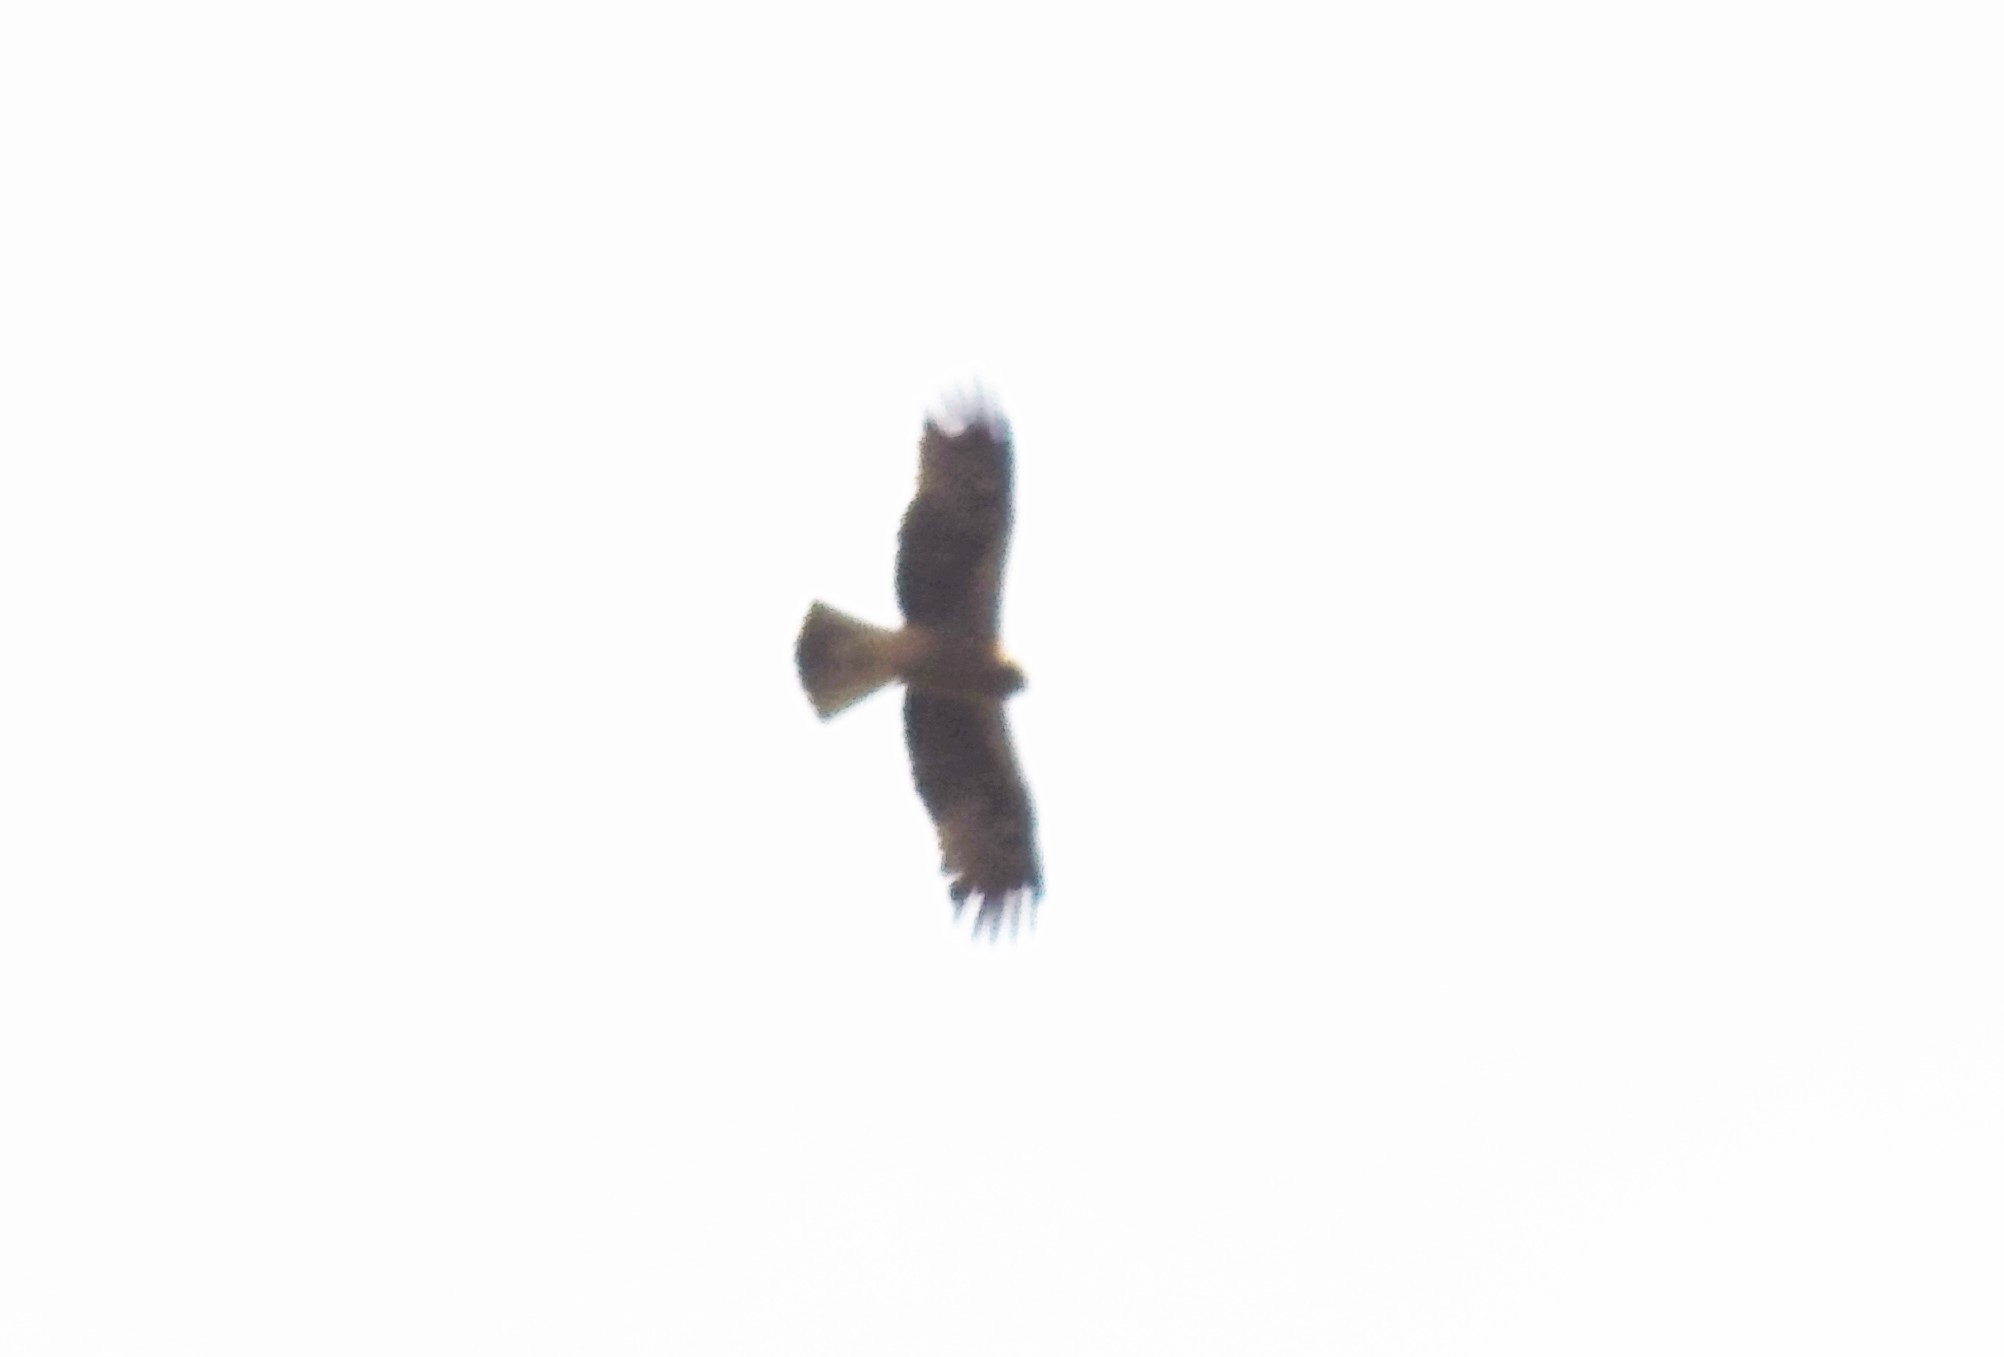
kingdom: Animalia
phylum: Chordata
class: Aves
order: Accipitriformes
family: Accipitridae
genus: Hieraaetus
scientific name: Hieraaetus pennatus
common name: Booted eagle
